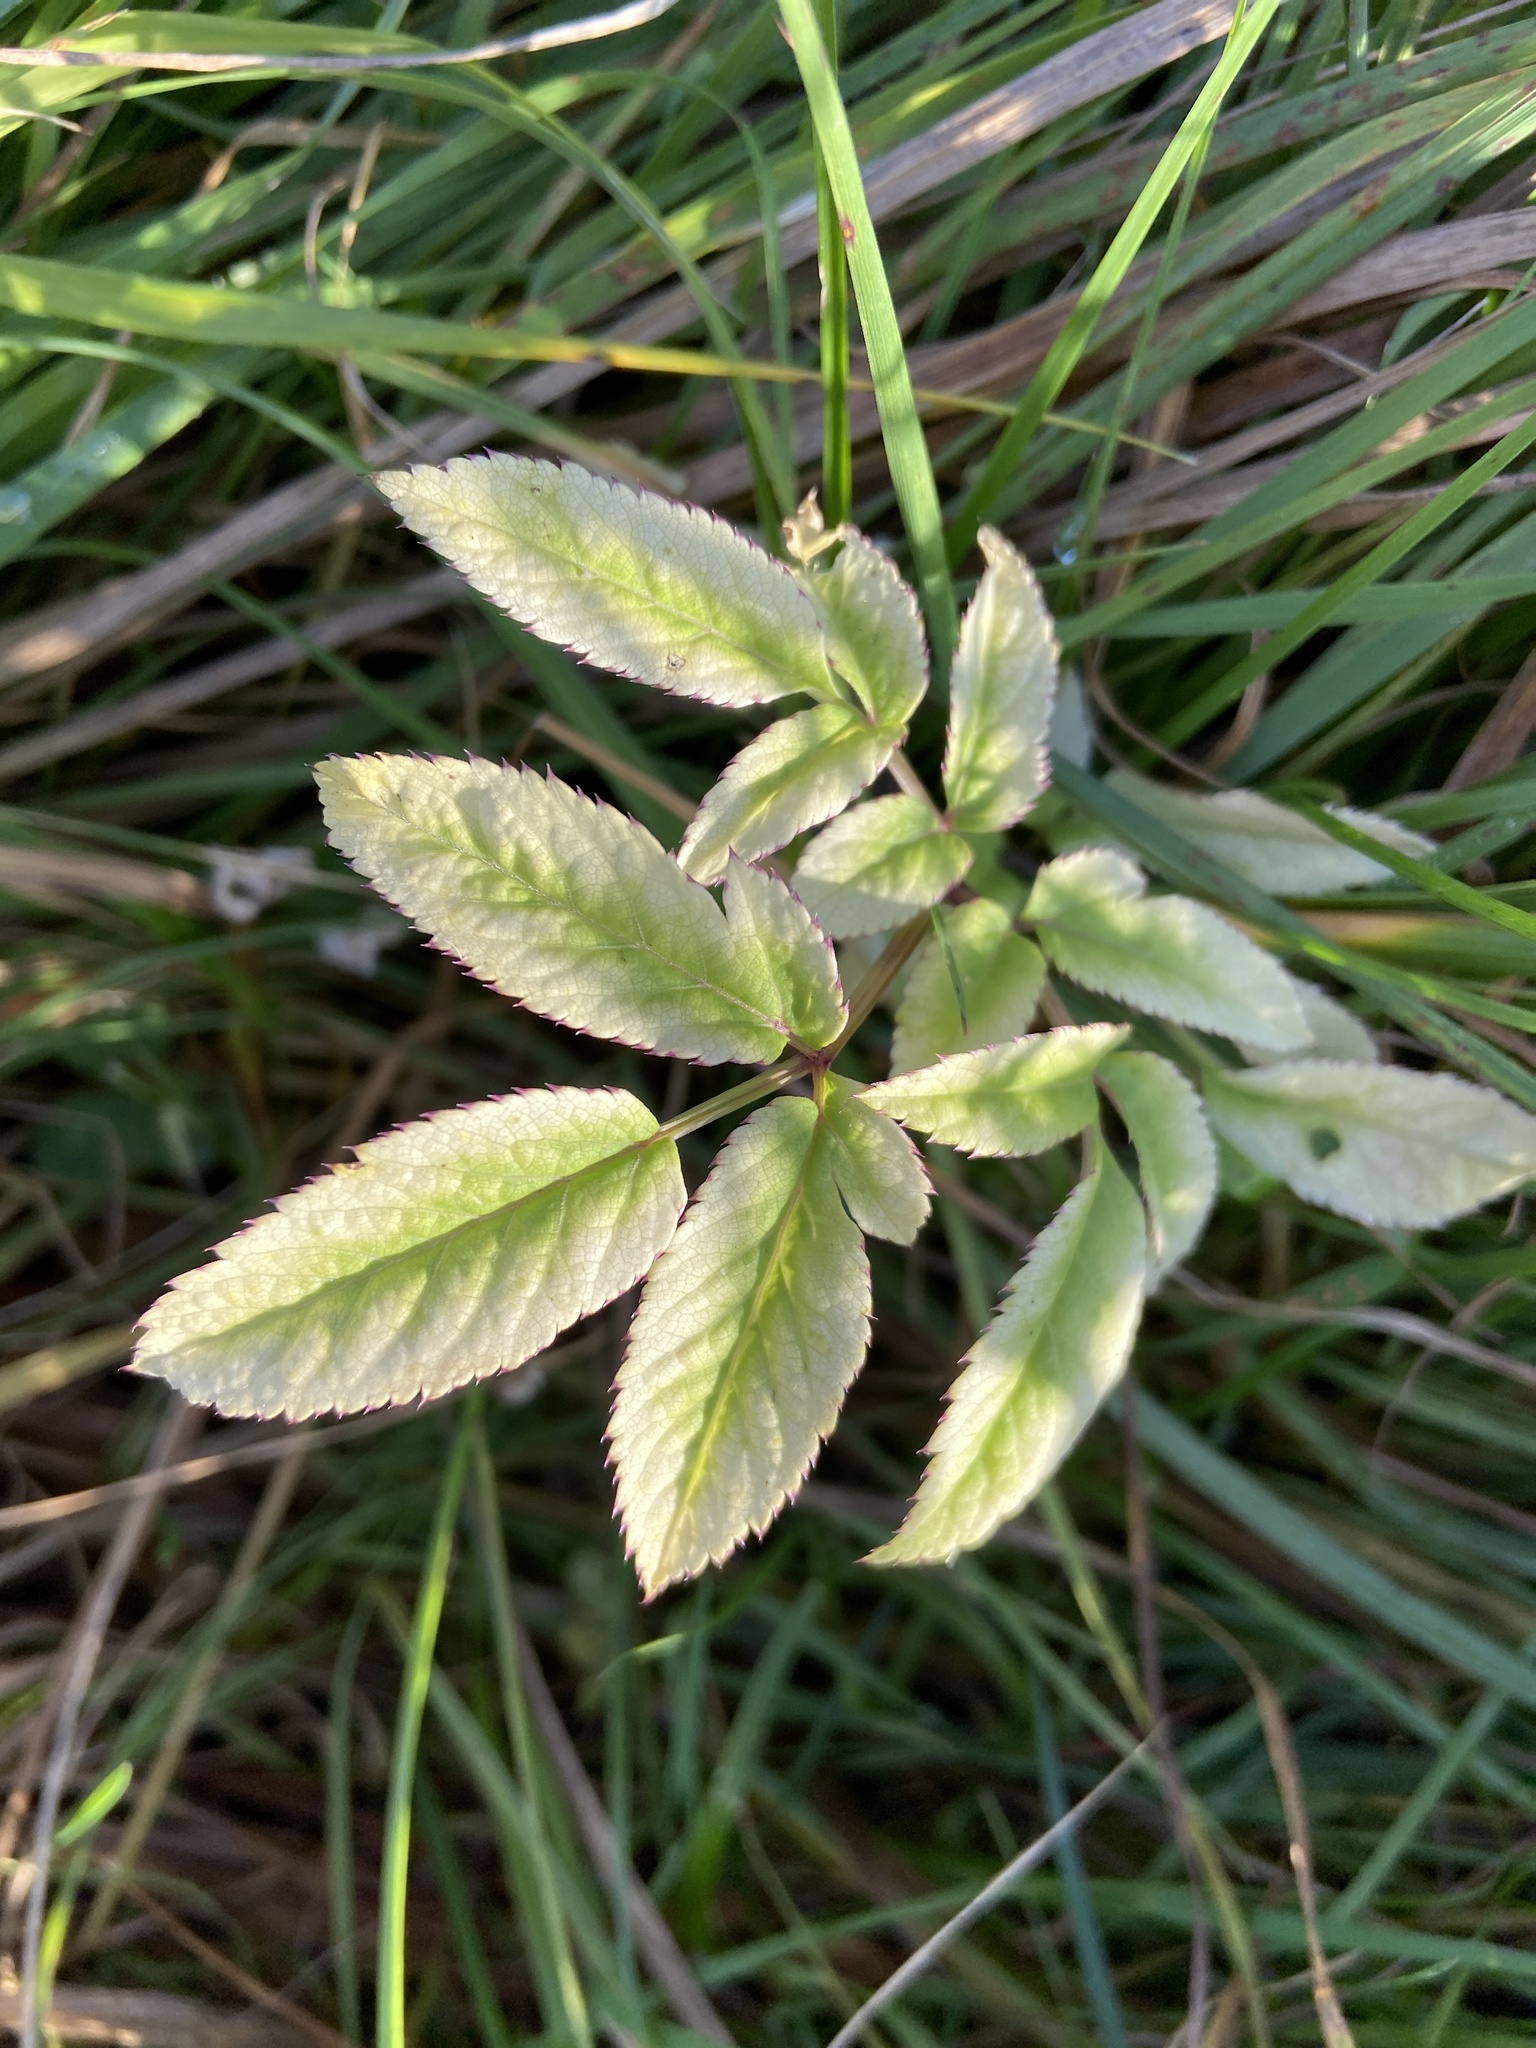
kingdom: Plantae
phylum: Tracheophyta
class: Magnoliopsida
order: Apiales
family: Apiaceae
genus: Angelica
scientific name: Angelica sylvestris
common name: Wild angelica
